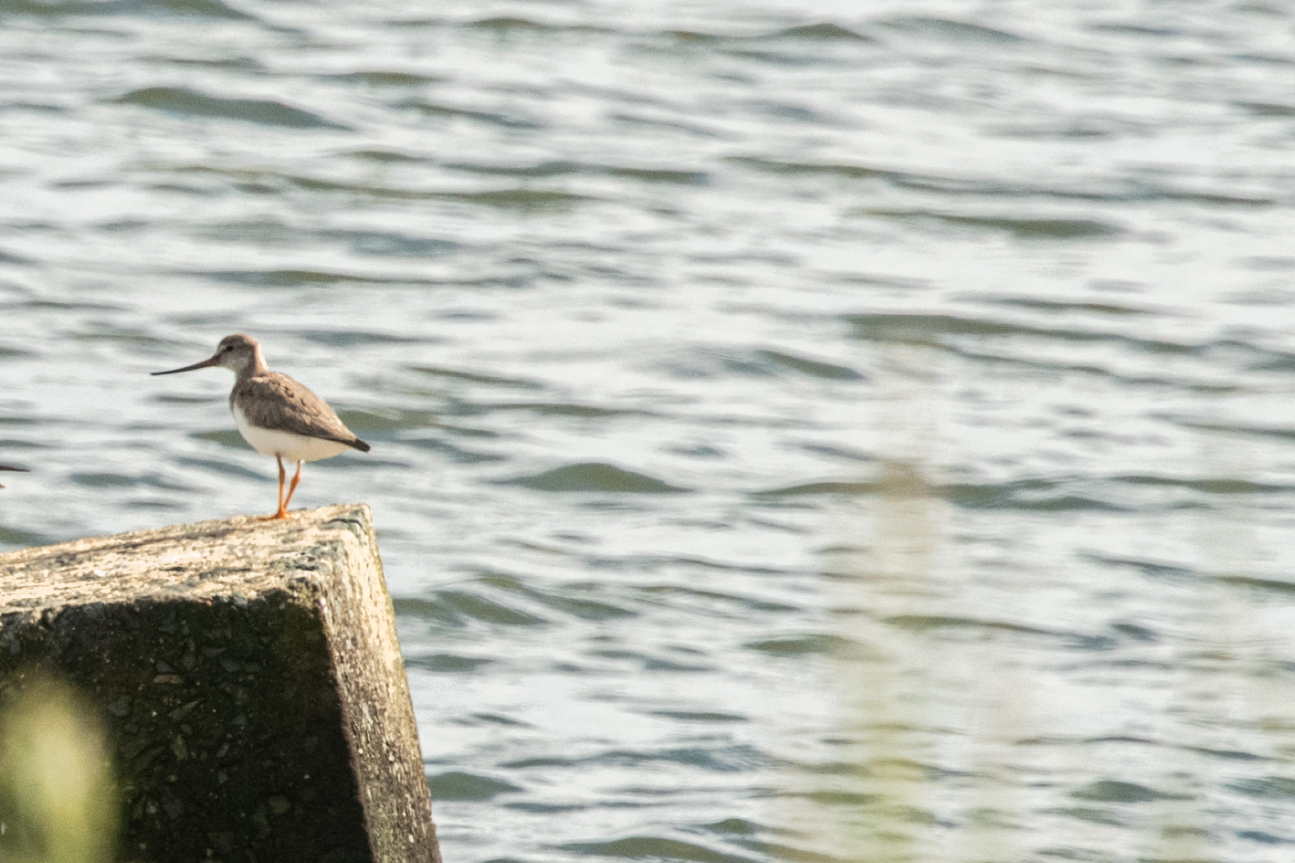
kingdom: Animalia
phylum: Chordata
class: Aves
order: Charadriiformes
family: Scolopacidae
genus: Xenus
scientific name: Xenus cinereus
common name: Terek sandpiper
